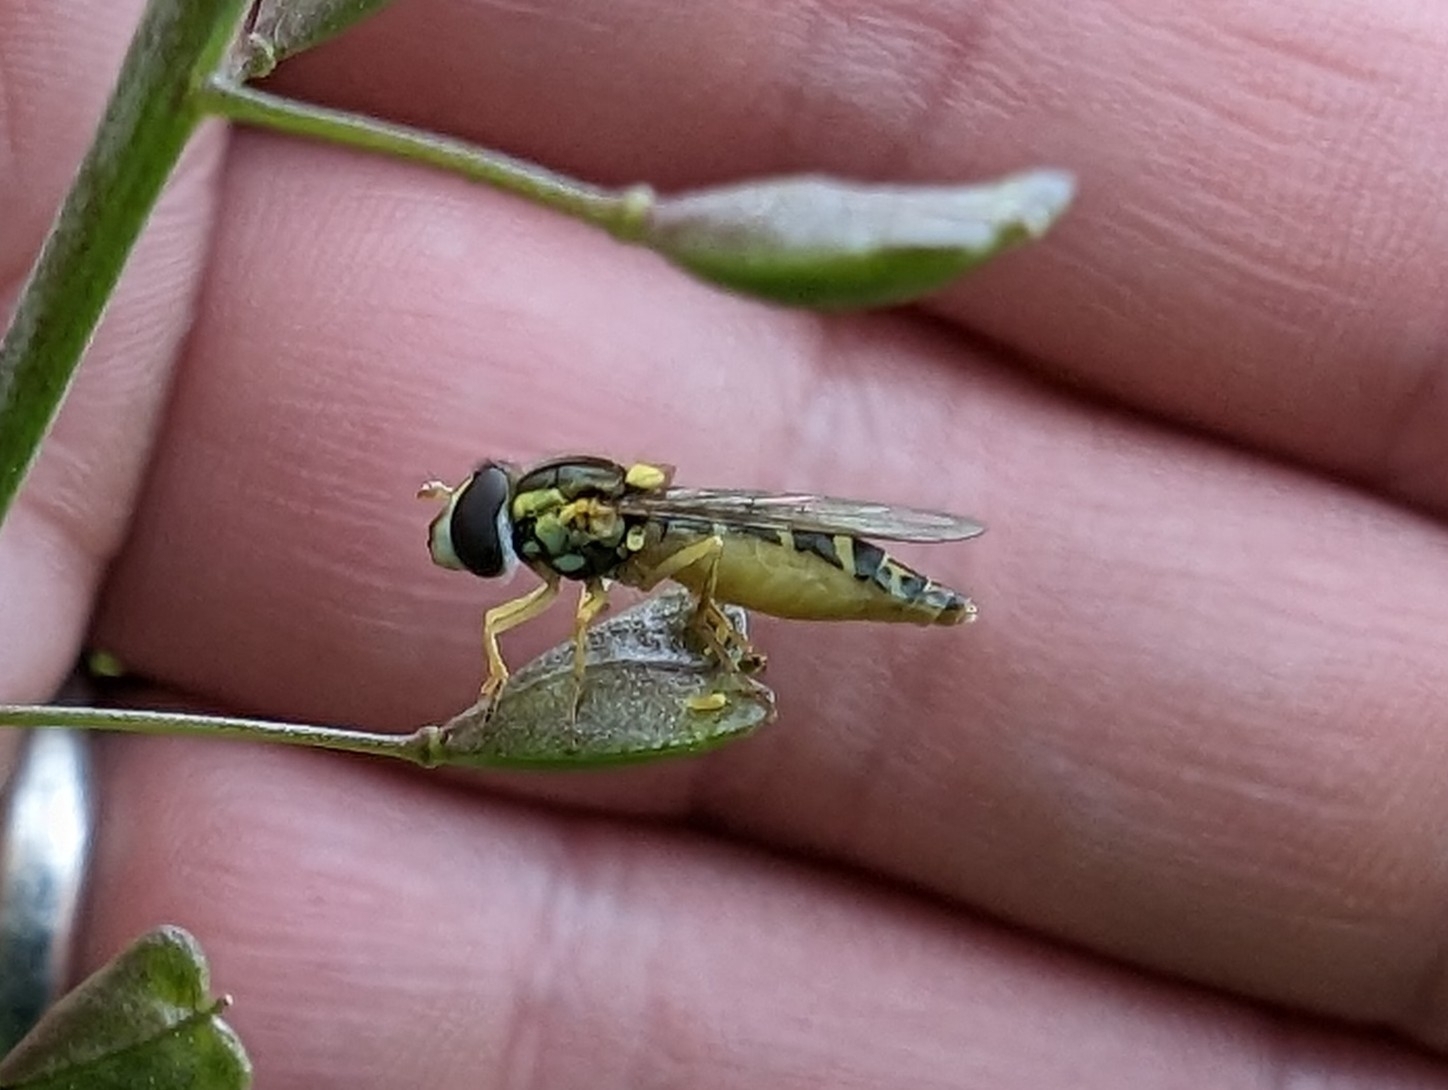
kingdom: Animalia
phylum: Arthropoda
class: Insecta
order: Diptera
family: Syrphidae
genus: Sphaerophoria
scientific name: Sphaerophoria
